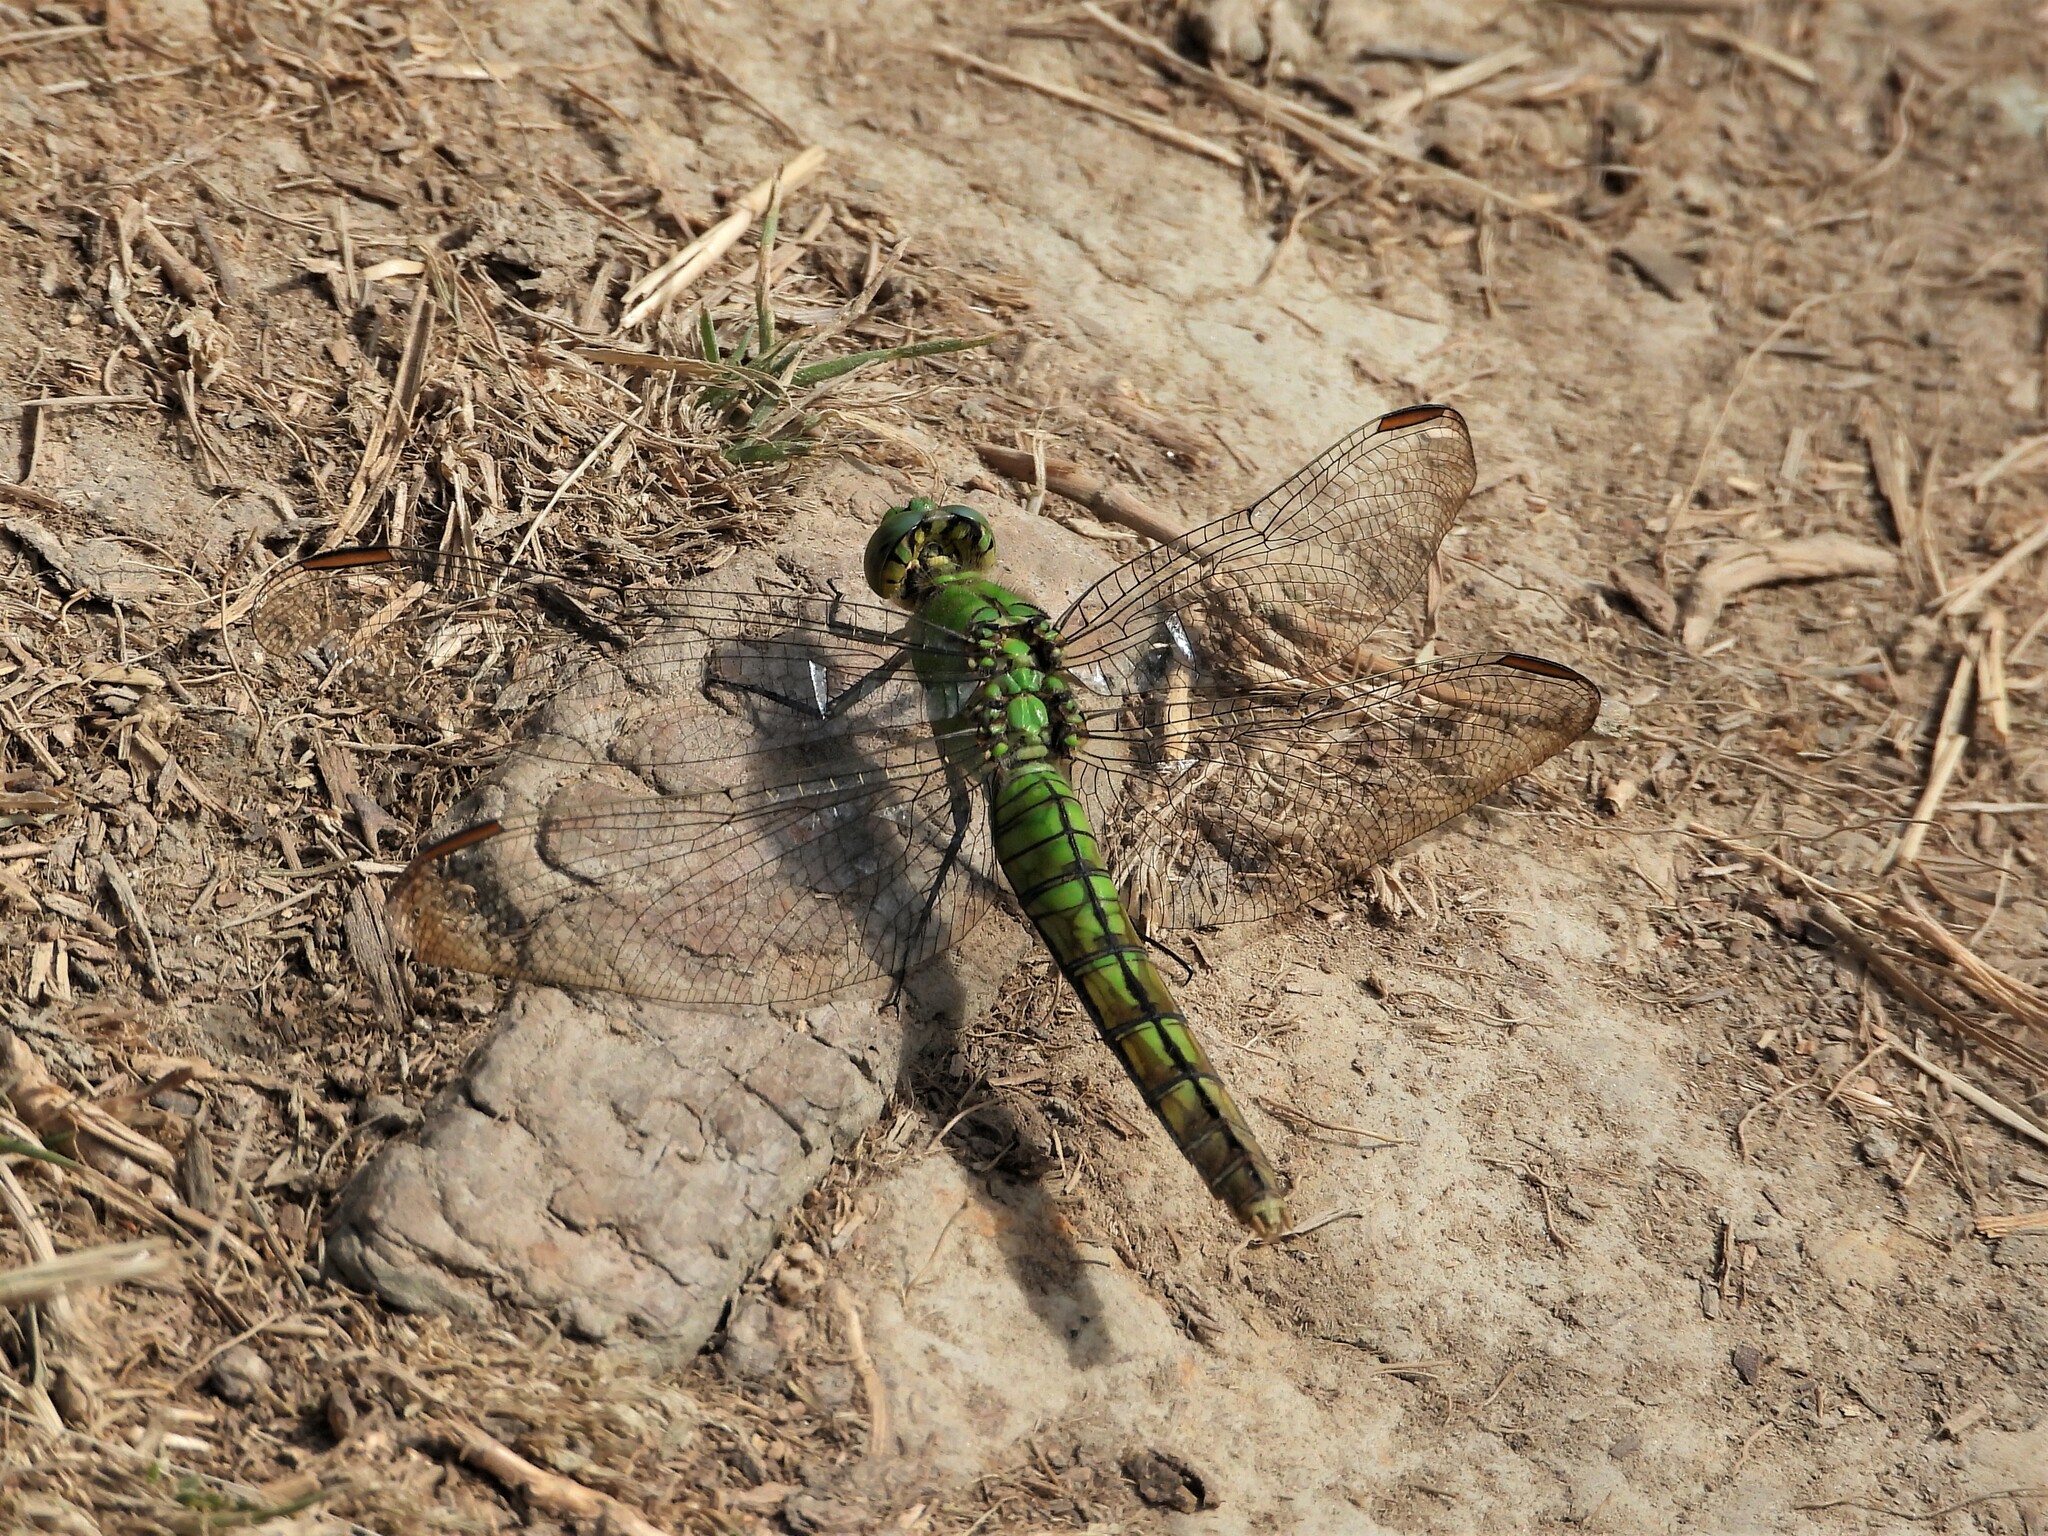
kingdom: Animalia
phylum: Arthropoda
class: Insecta
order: Odonata
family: Libellulidae
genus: Erythemis
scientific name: Erythemis collocata
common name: Western pondhawk
